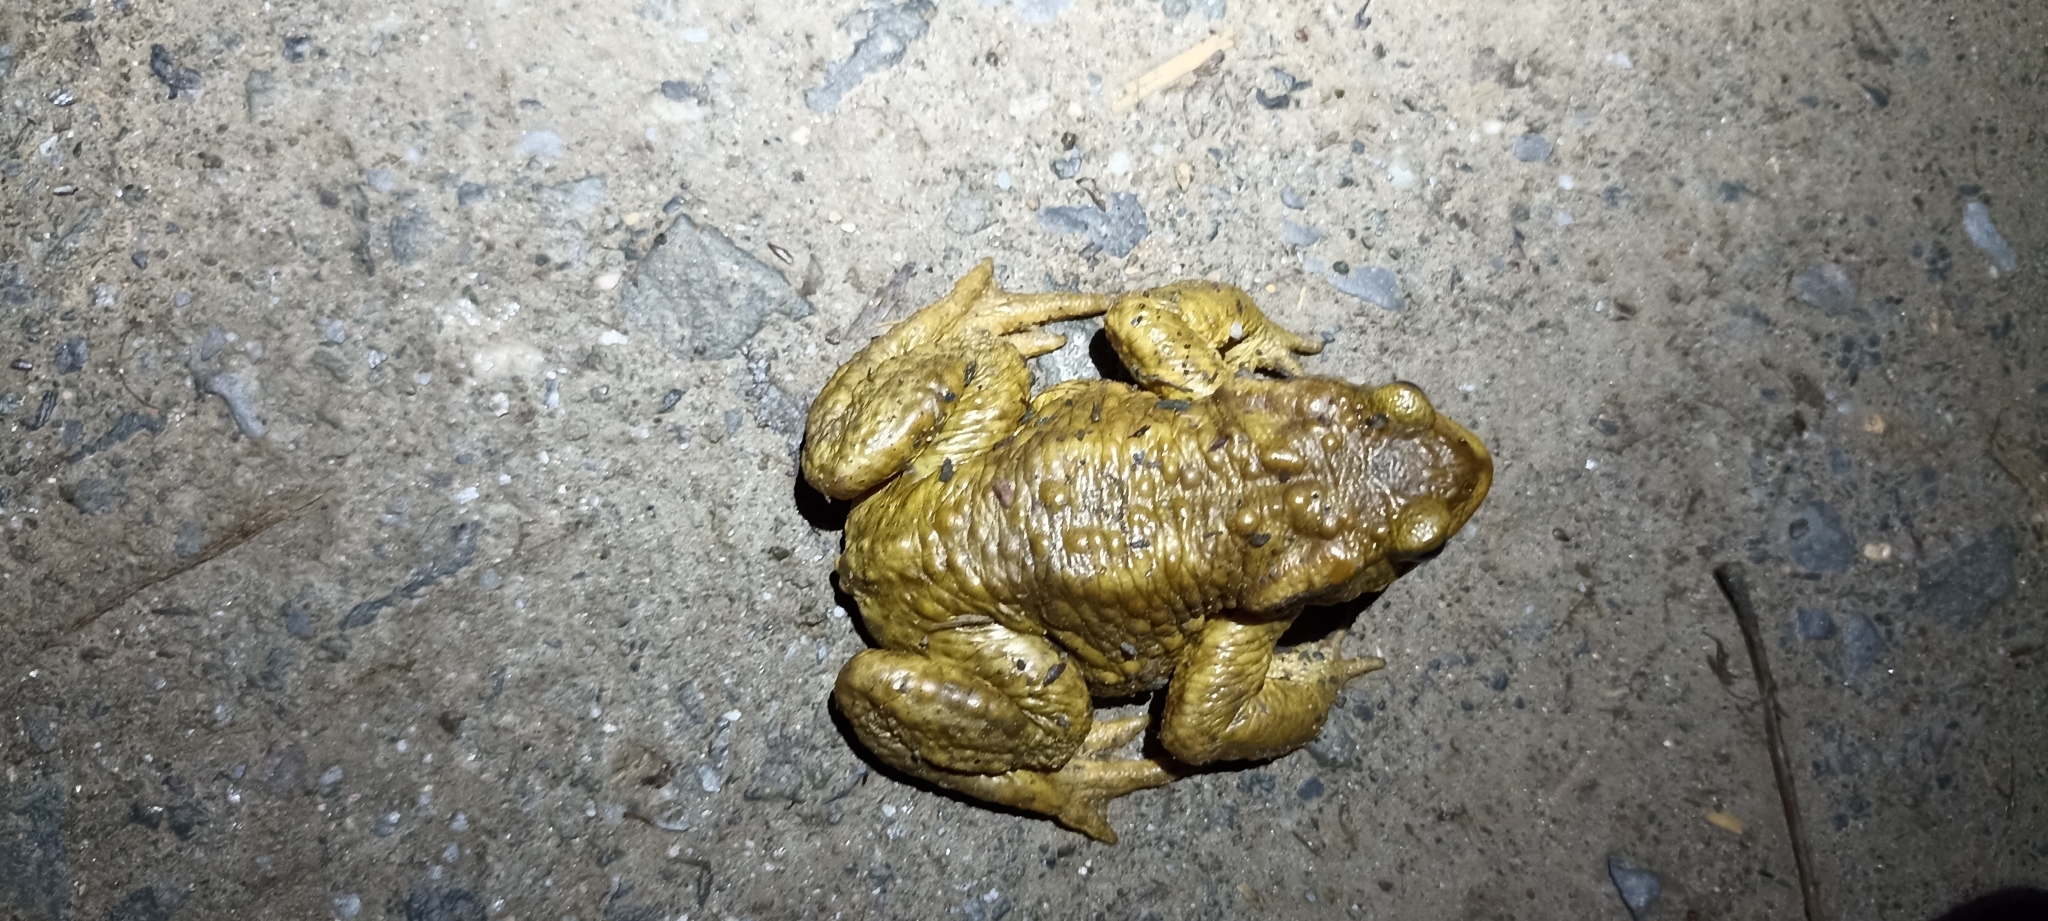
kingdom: Animalia
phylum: Chordata
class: Amphibia
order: Anura
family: Bufonidae
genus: Bufo
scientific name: Bufo spinosus
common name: Western common toad
